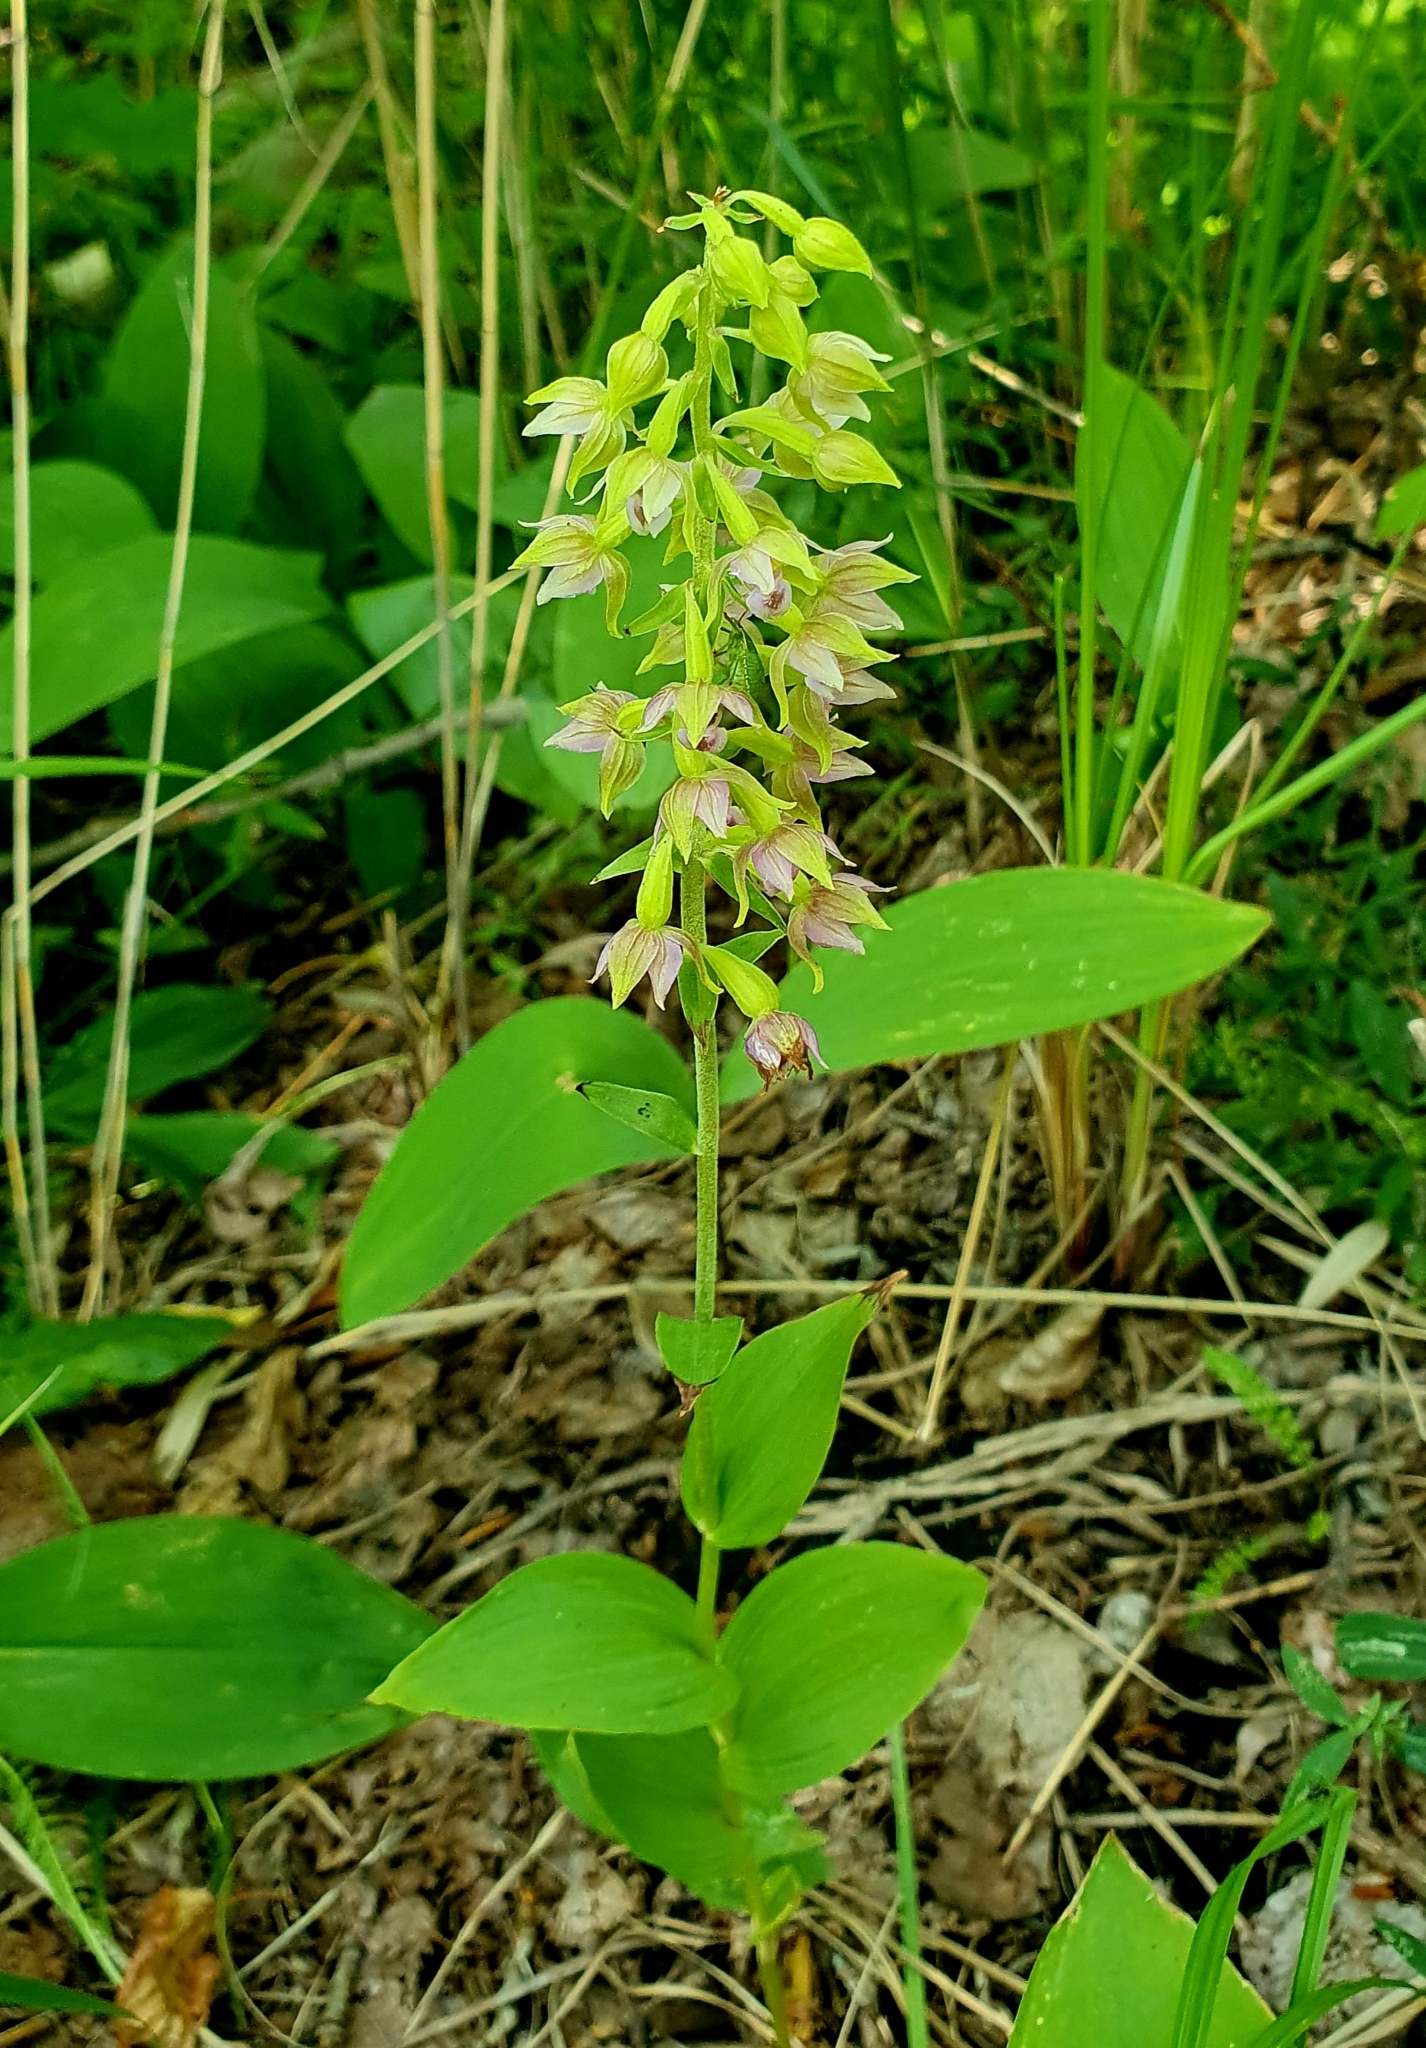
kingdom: Plantae
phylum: Tracheophyta
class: Liliopsida
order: Asparagales
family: Orchidaceae
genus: Epipactis
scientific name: Epipactis helleborine
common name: Broad-leaved helleborine
